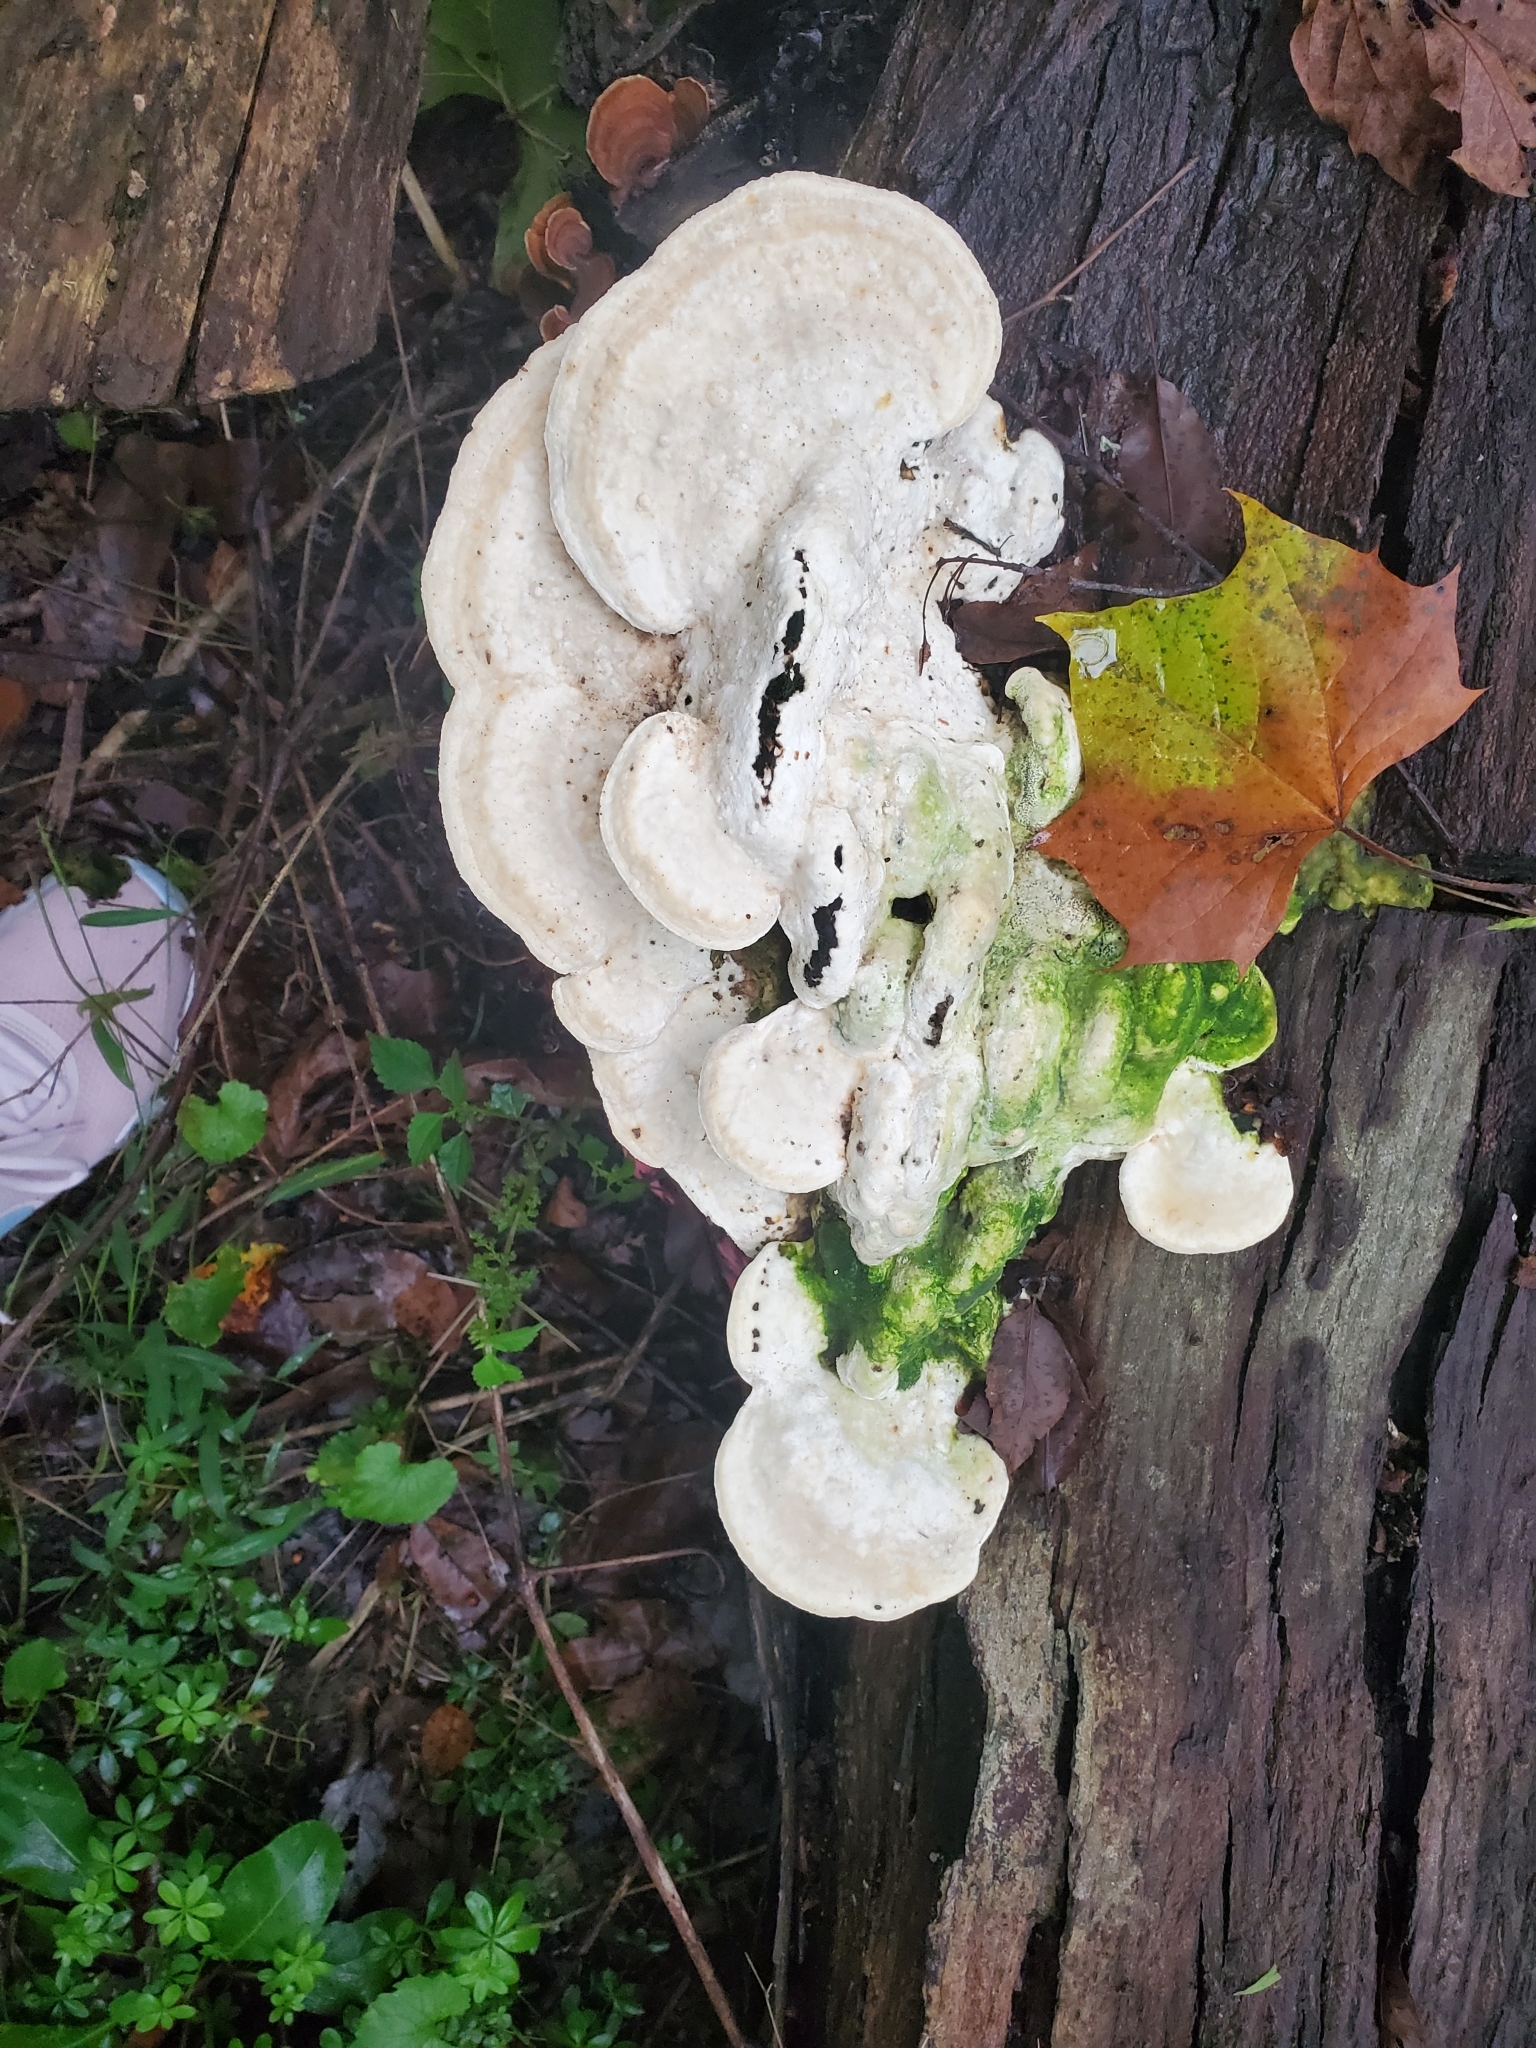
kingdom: Fungi
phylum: Basidiomycota
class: Agaricomycetes
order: Polyporales
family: Polyporaceae
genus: Trametes
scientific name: Trametes gibbosa
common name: Lumpy bracket
